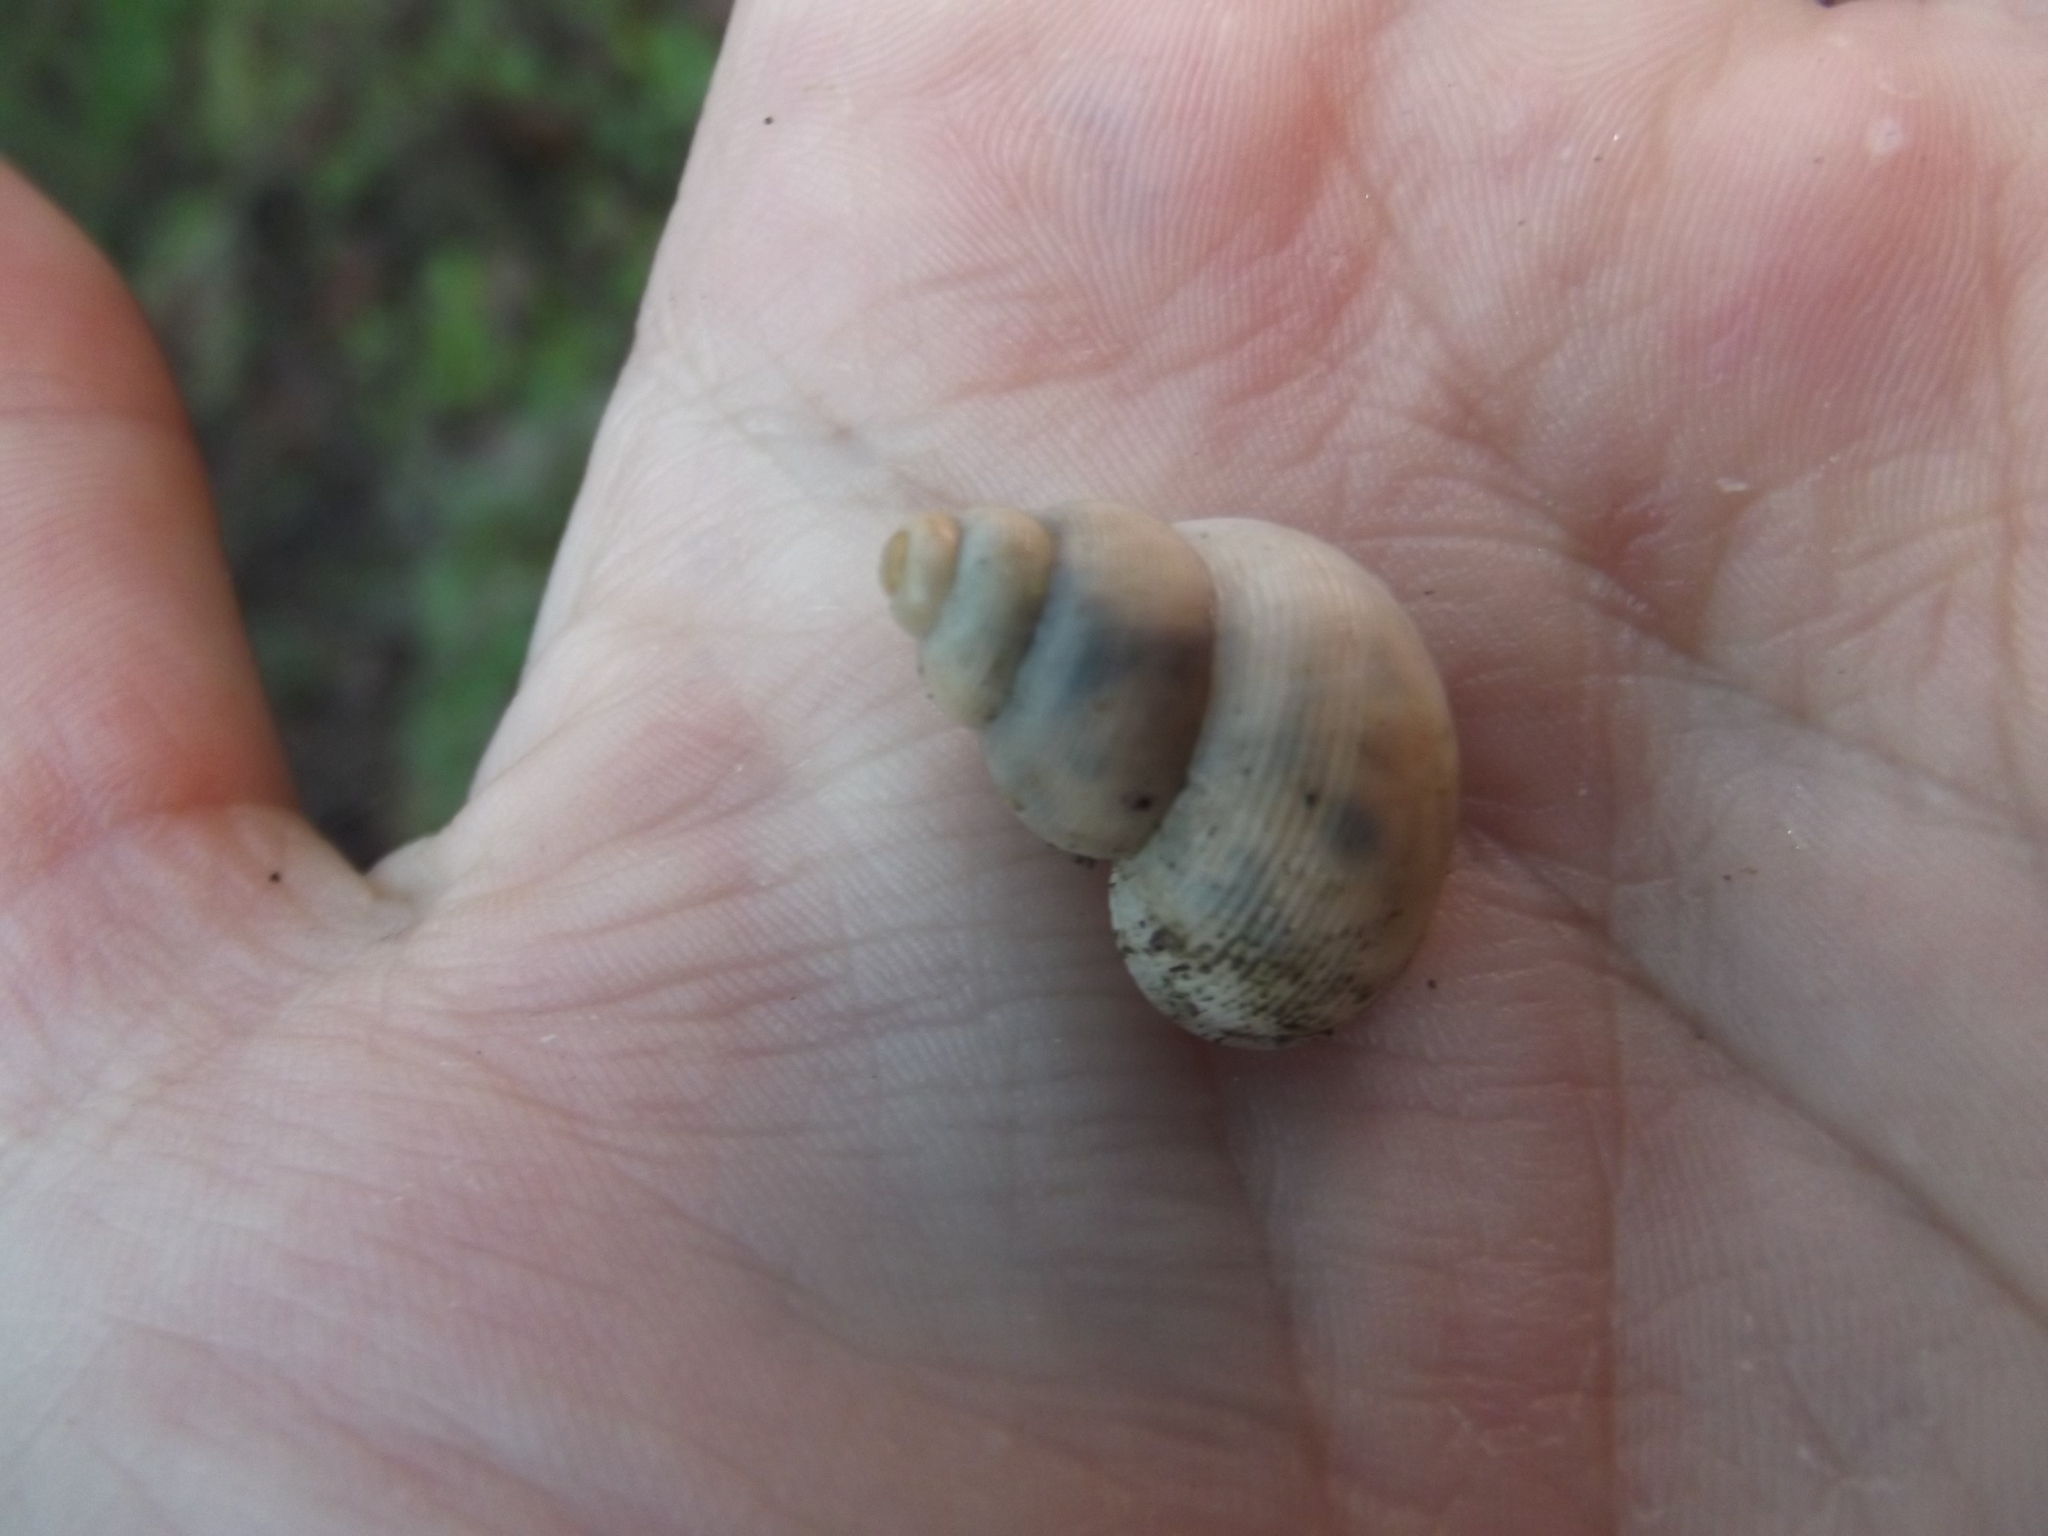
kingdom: Animalia
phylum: Mollusca
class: Gastropoda
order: Littorinimorpha
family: Pomatiidae
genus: Pomatias
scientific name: Pomatias elegans
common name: Red-mouthed snail
